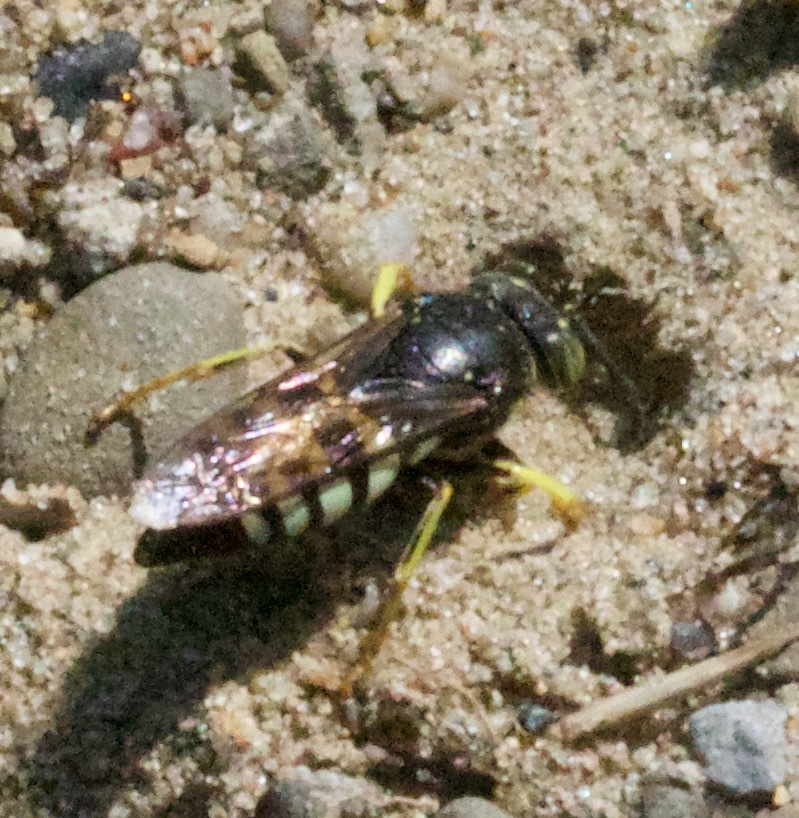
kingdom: Animalia
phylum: Arthropoda
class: Insecta
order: Hymenoptera
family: Crabronidae
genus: Bicyrtes
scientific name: Bicyrtes quadrifasciatus
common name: Four-banded stink bug hunter wasp
